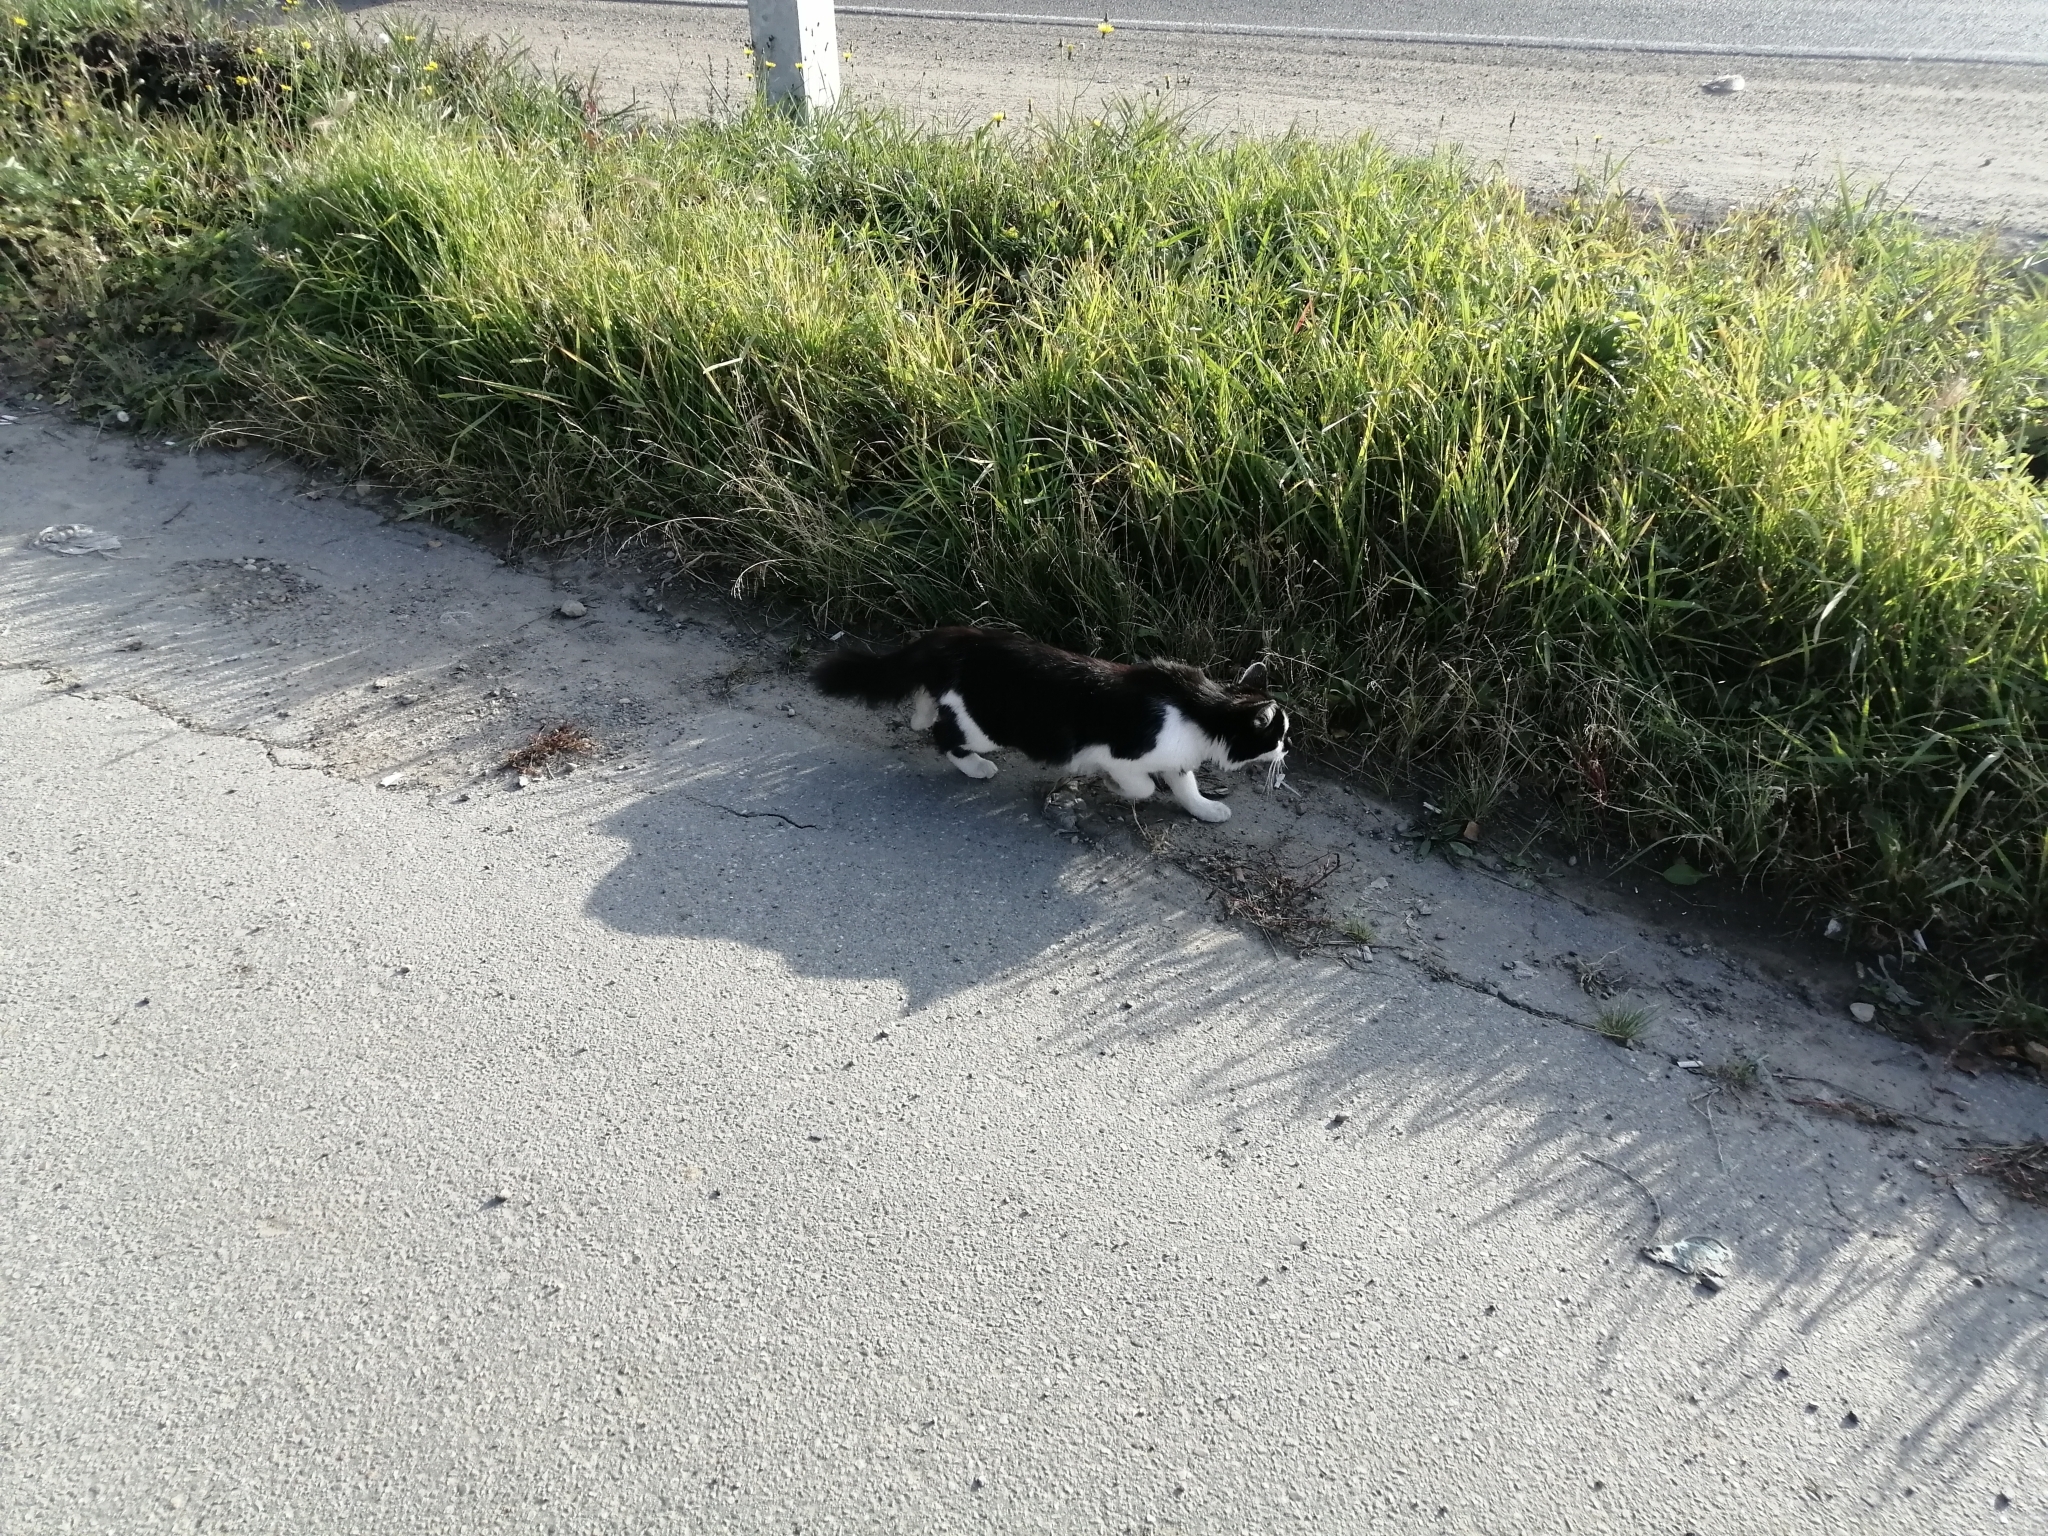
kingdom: Animalia
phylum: Chordata
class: Mammalia
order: Carnivora
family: Felidae
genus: Felis
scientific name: Felis catus
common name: Domestic cat
